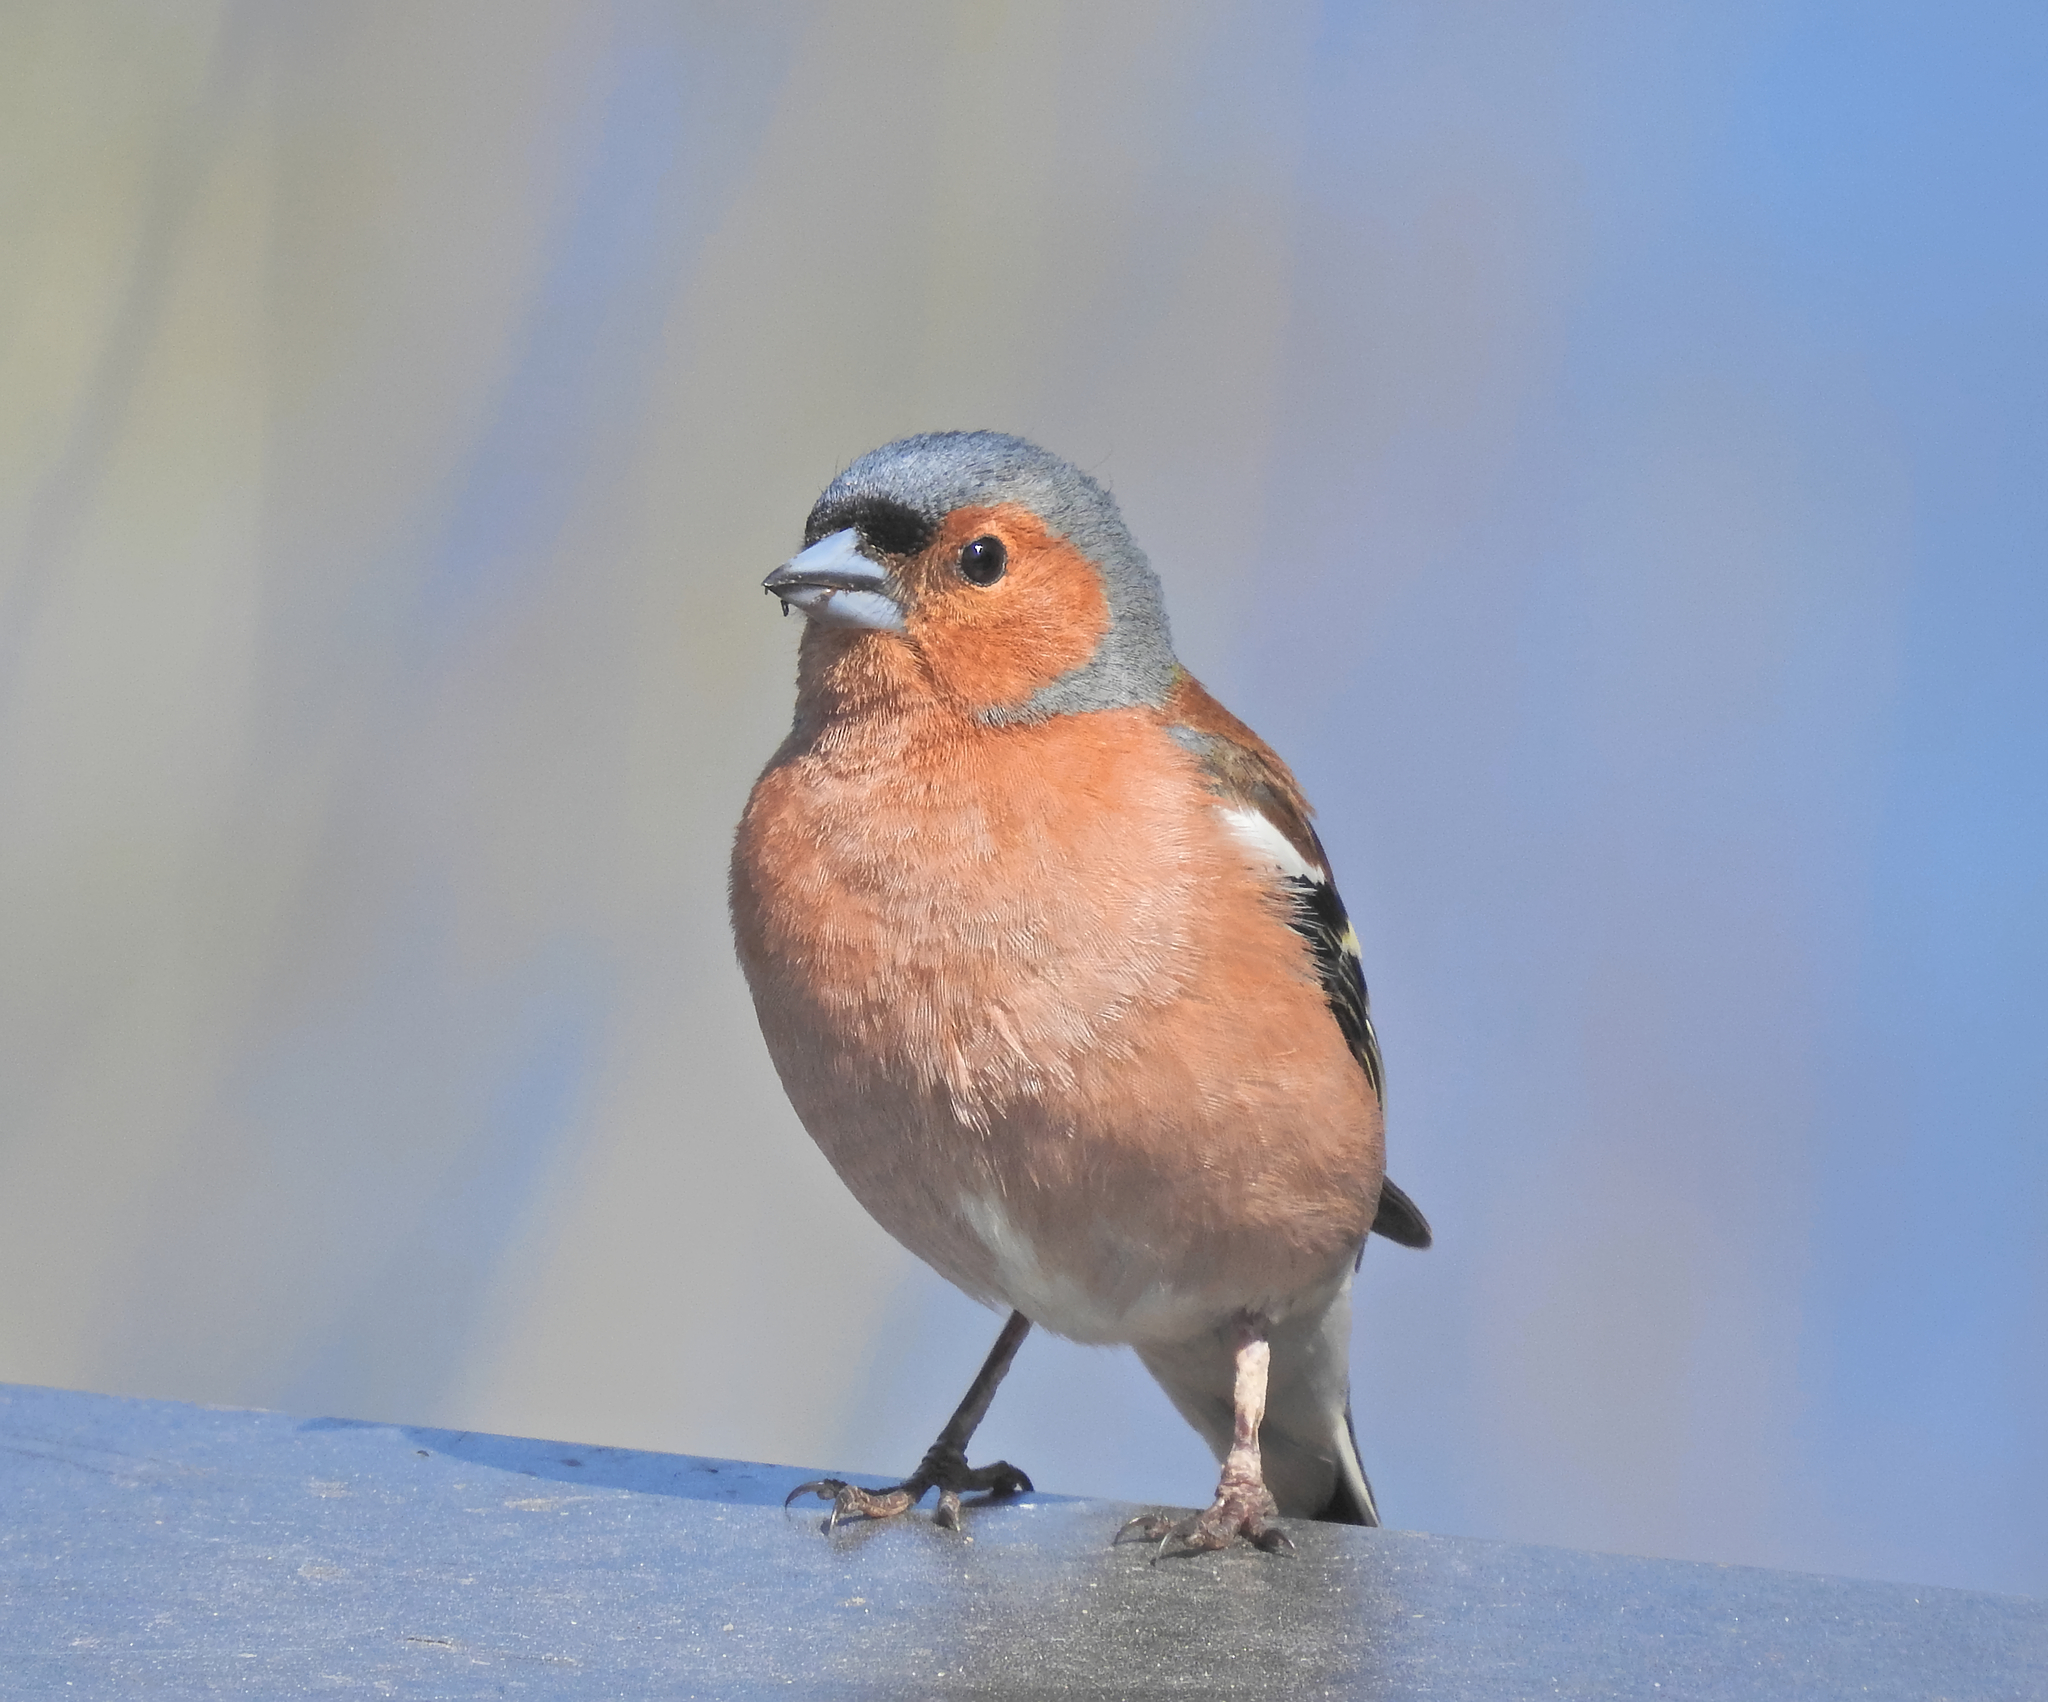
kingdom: Animalia
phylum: Chordata
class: Aves
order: Passeriformes
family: Fringillidae
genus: Fringilla
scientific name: Fringilla coelebs
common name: Common chaffinch
